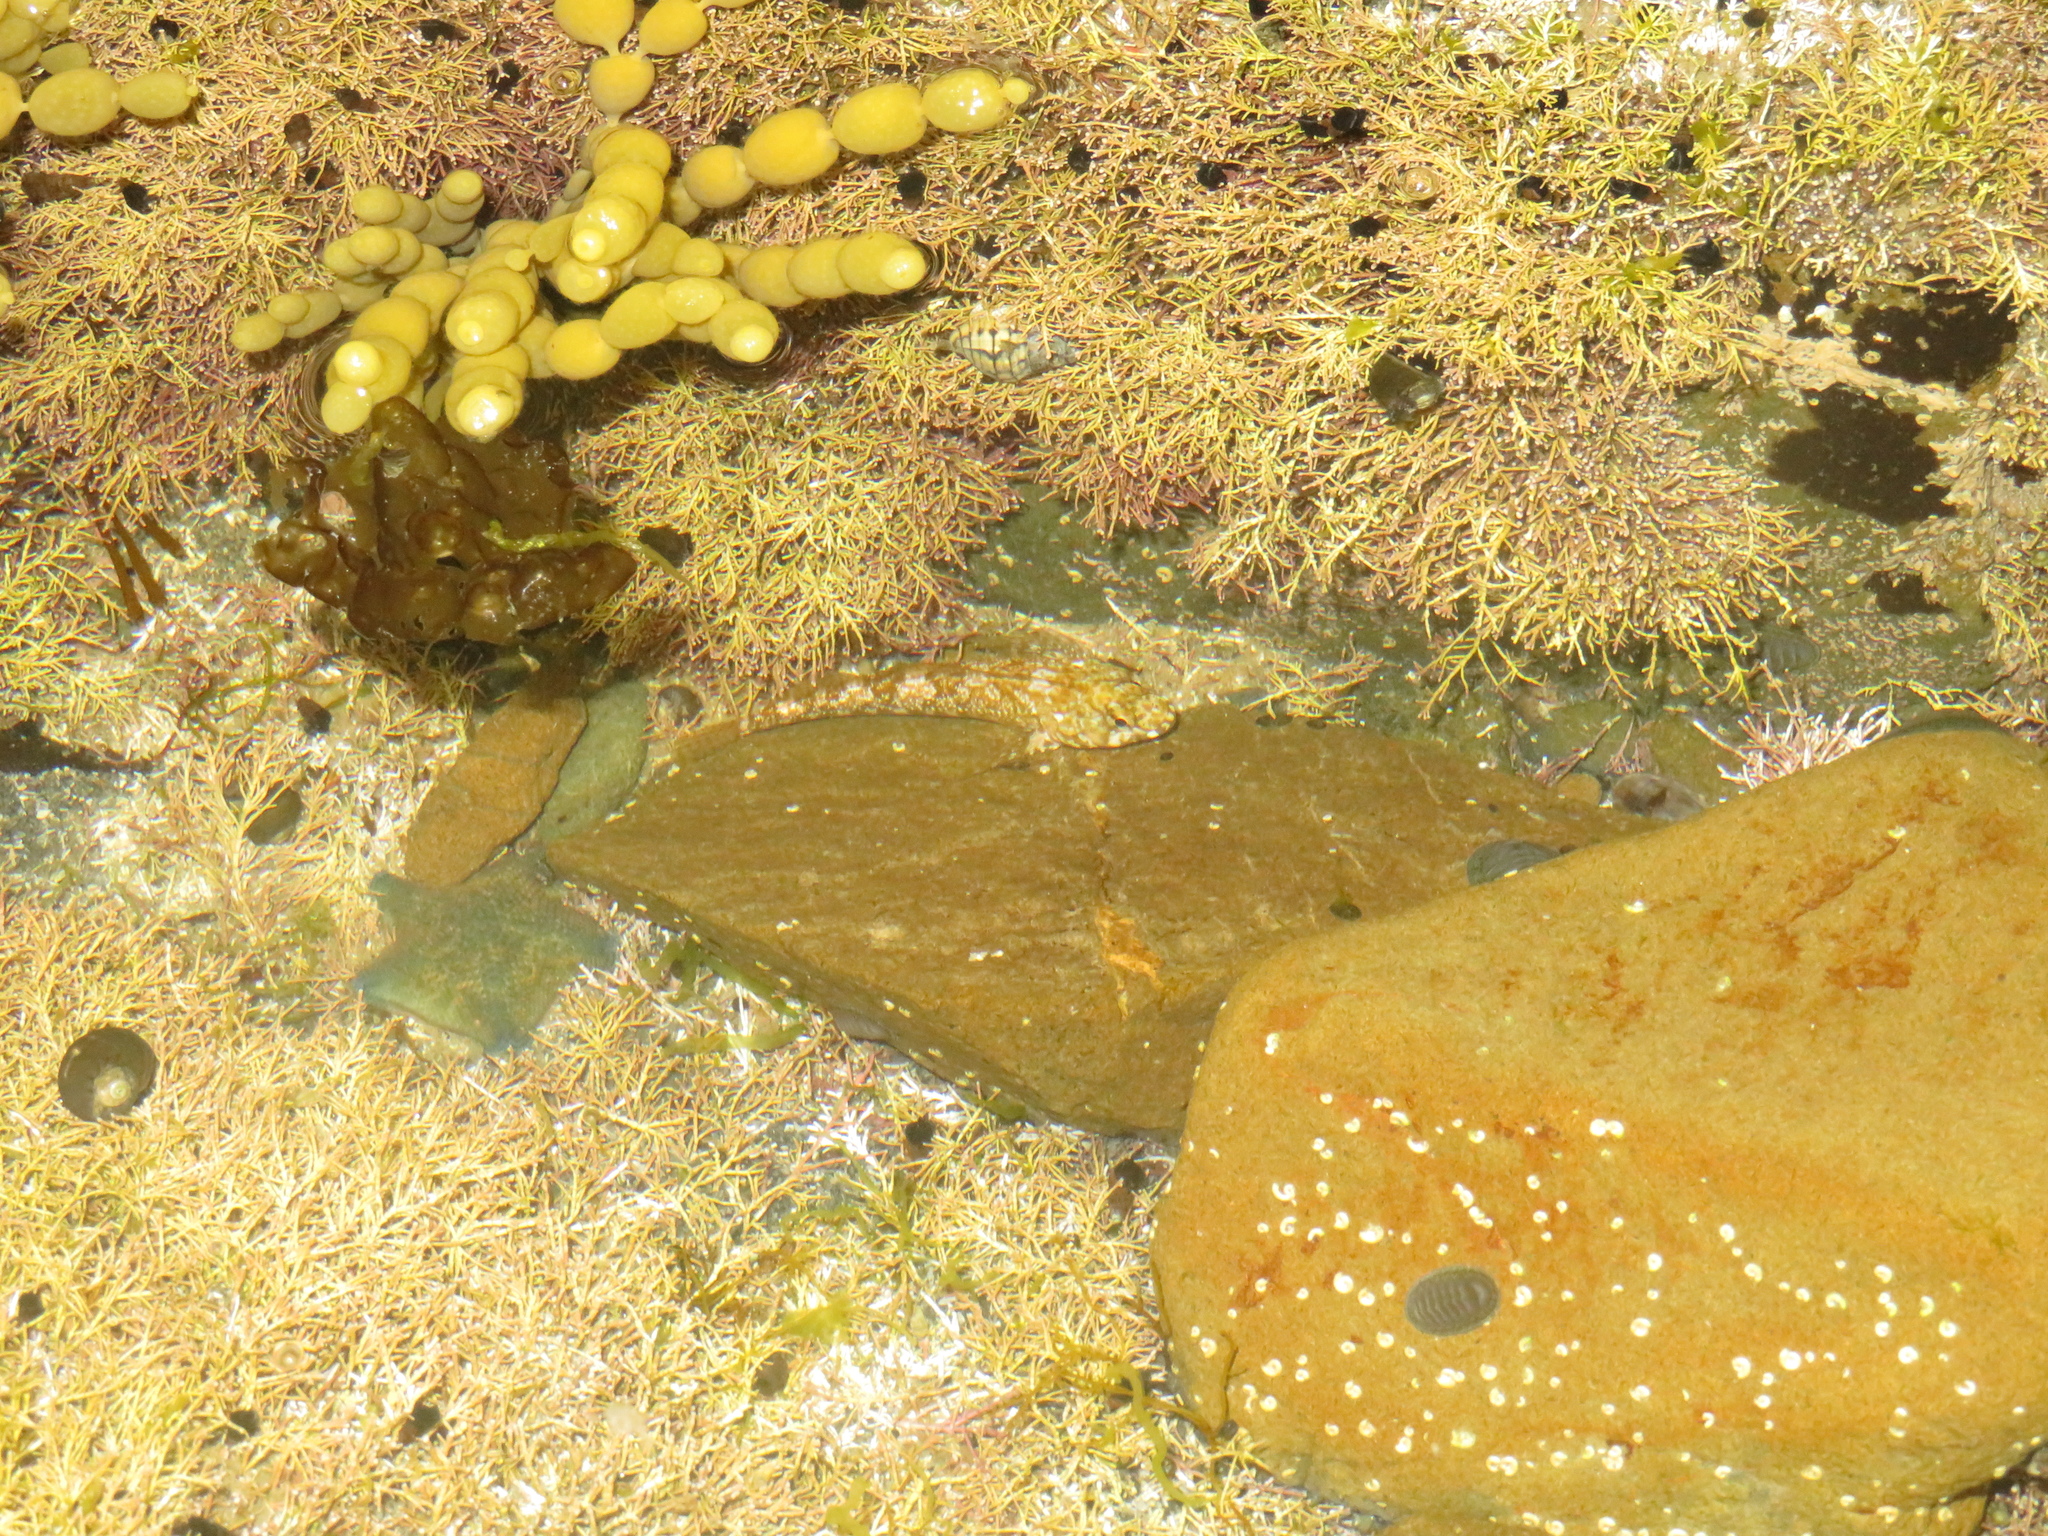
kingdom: Animalia
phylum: Chordata
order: Perciformes
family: Tripterygiidae
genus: Bellapiscis
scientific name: Bellapiscis medius
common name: Twister
